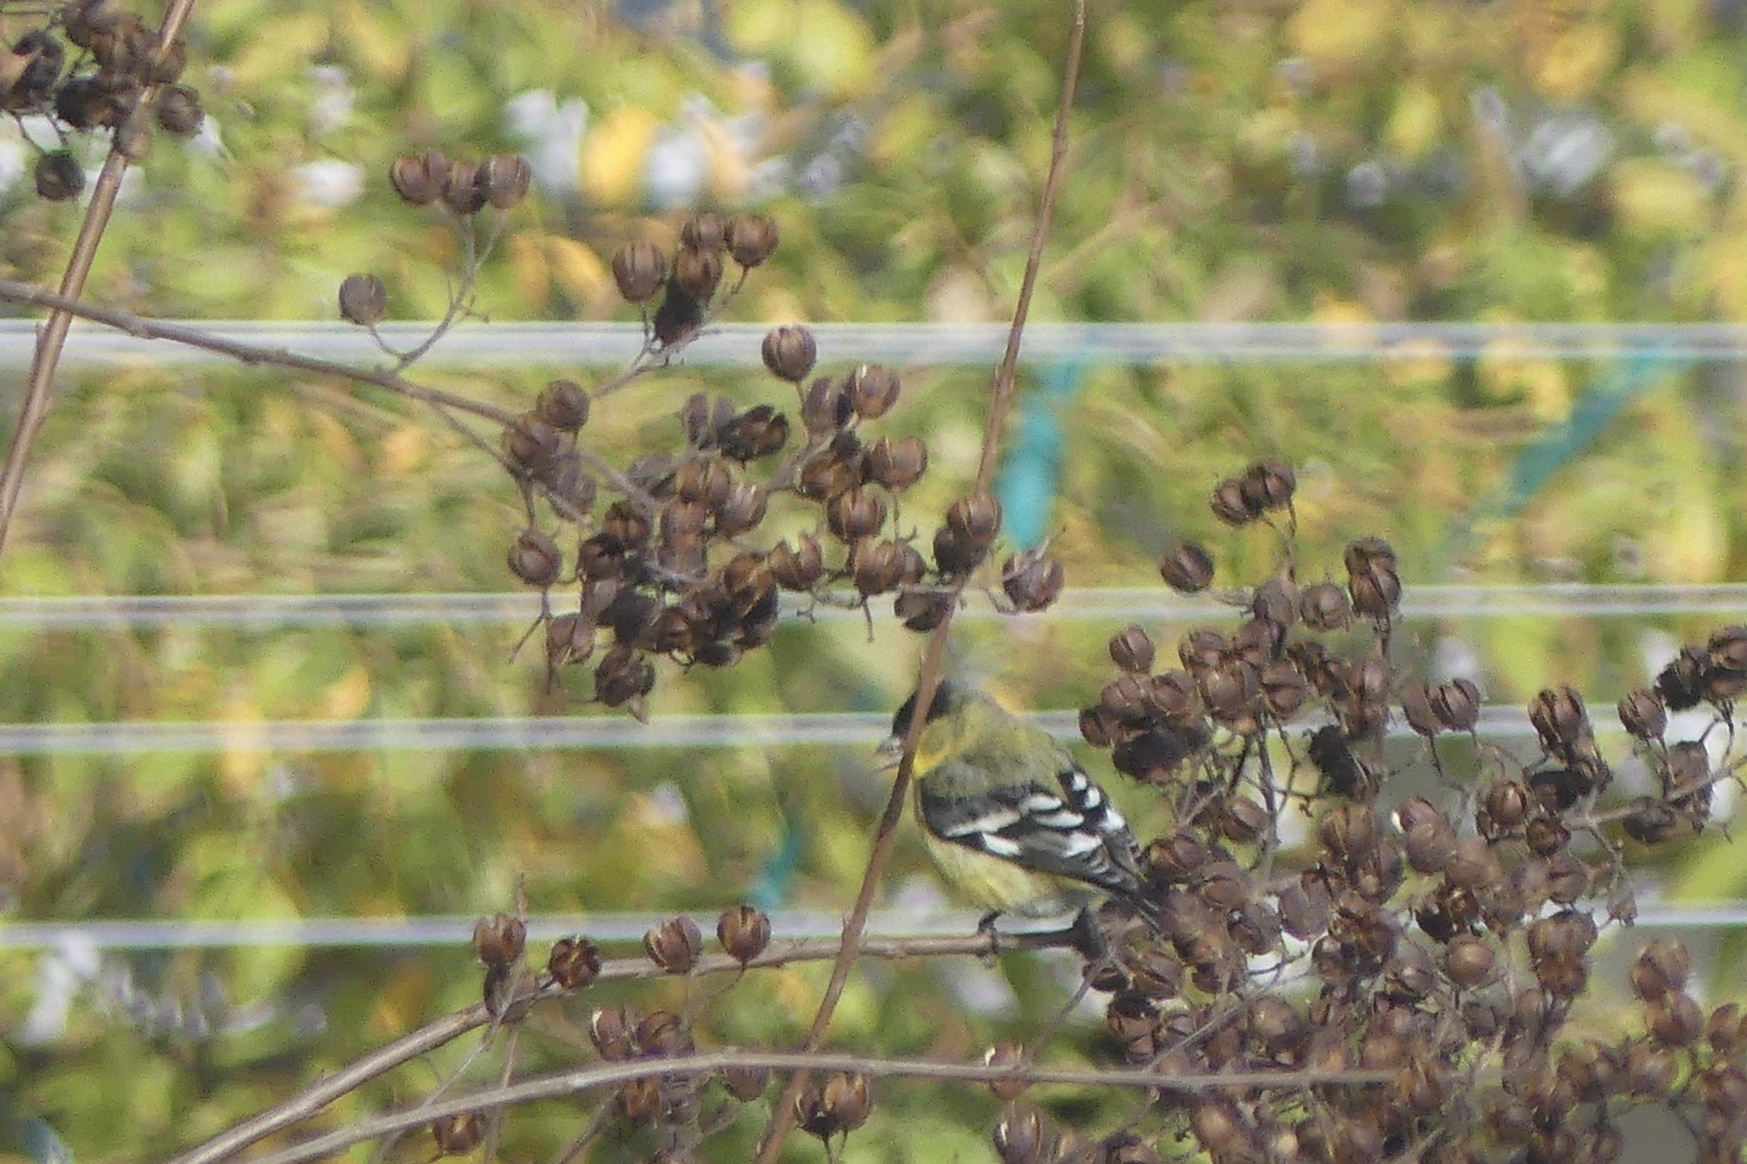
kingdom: Animalia
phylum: Chordata
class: Aves
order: Passeriformes
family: Fringillidae
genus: Spinus
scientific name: Spinus psaltria
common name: Lesser goldfinch
